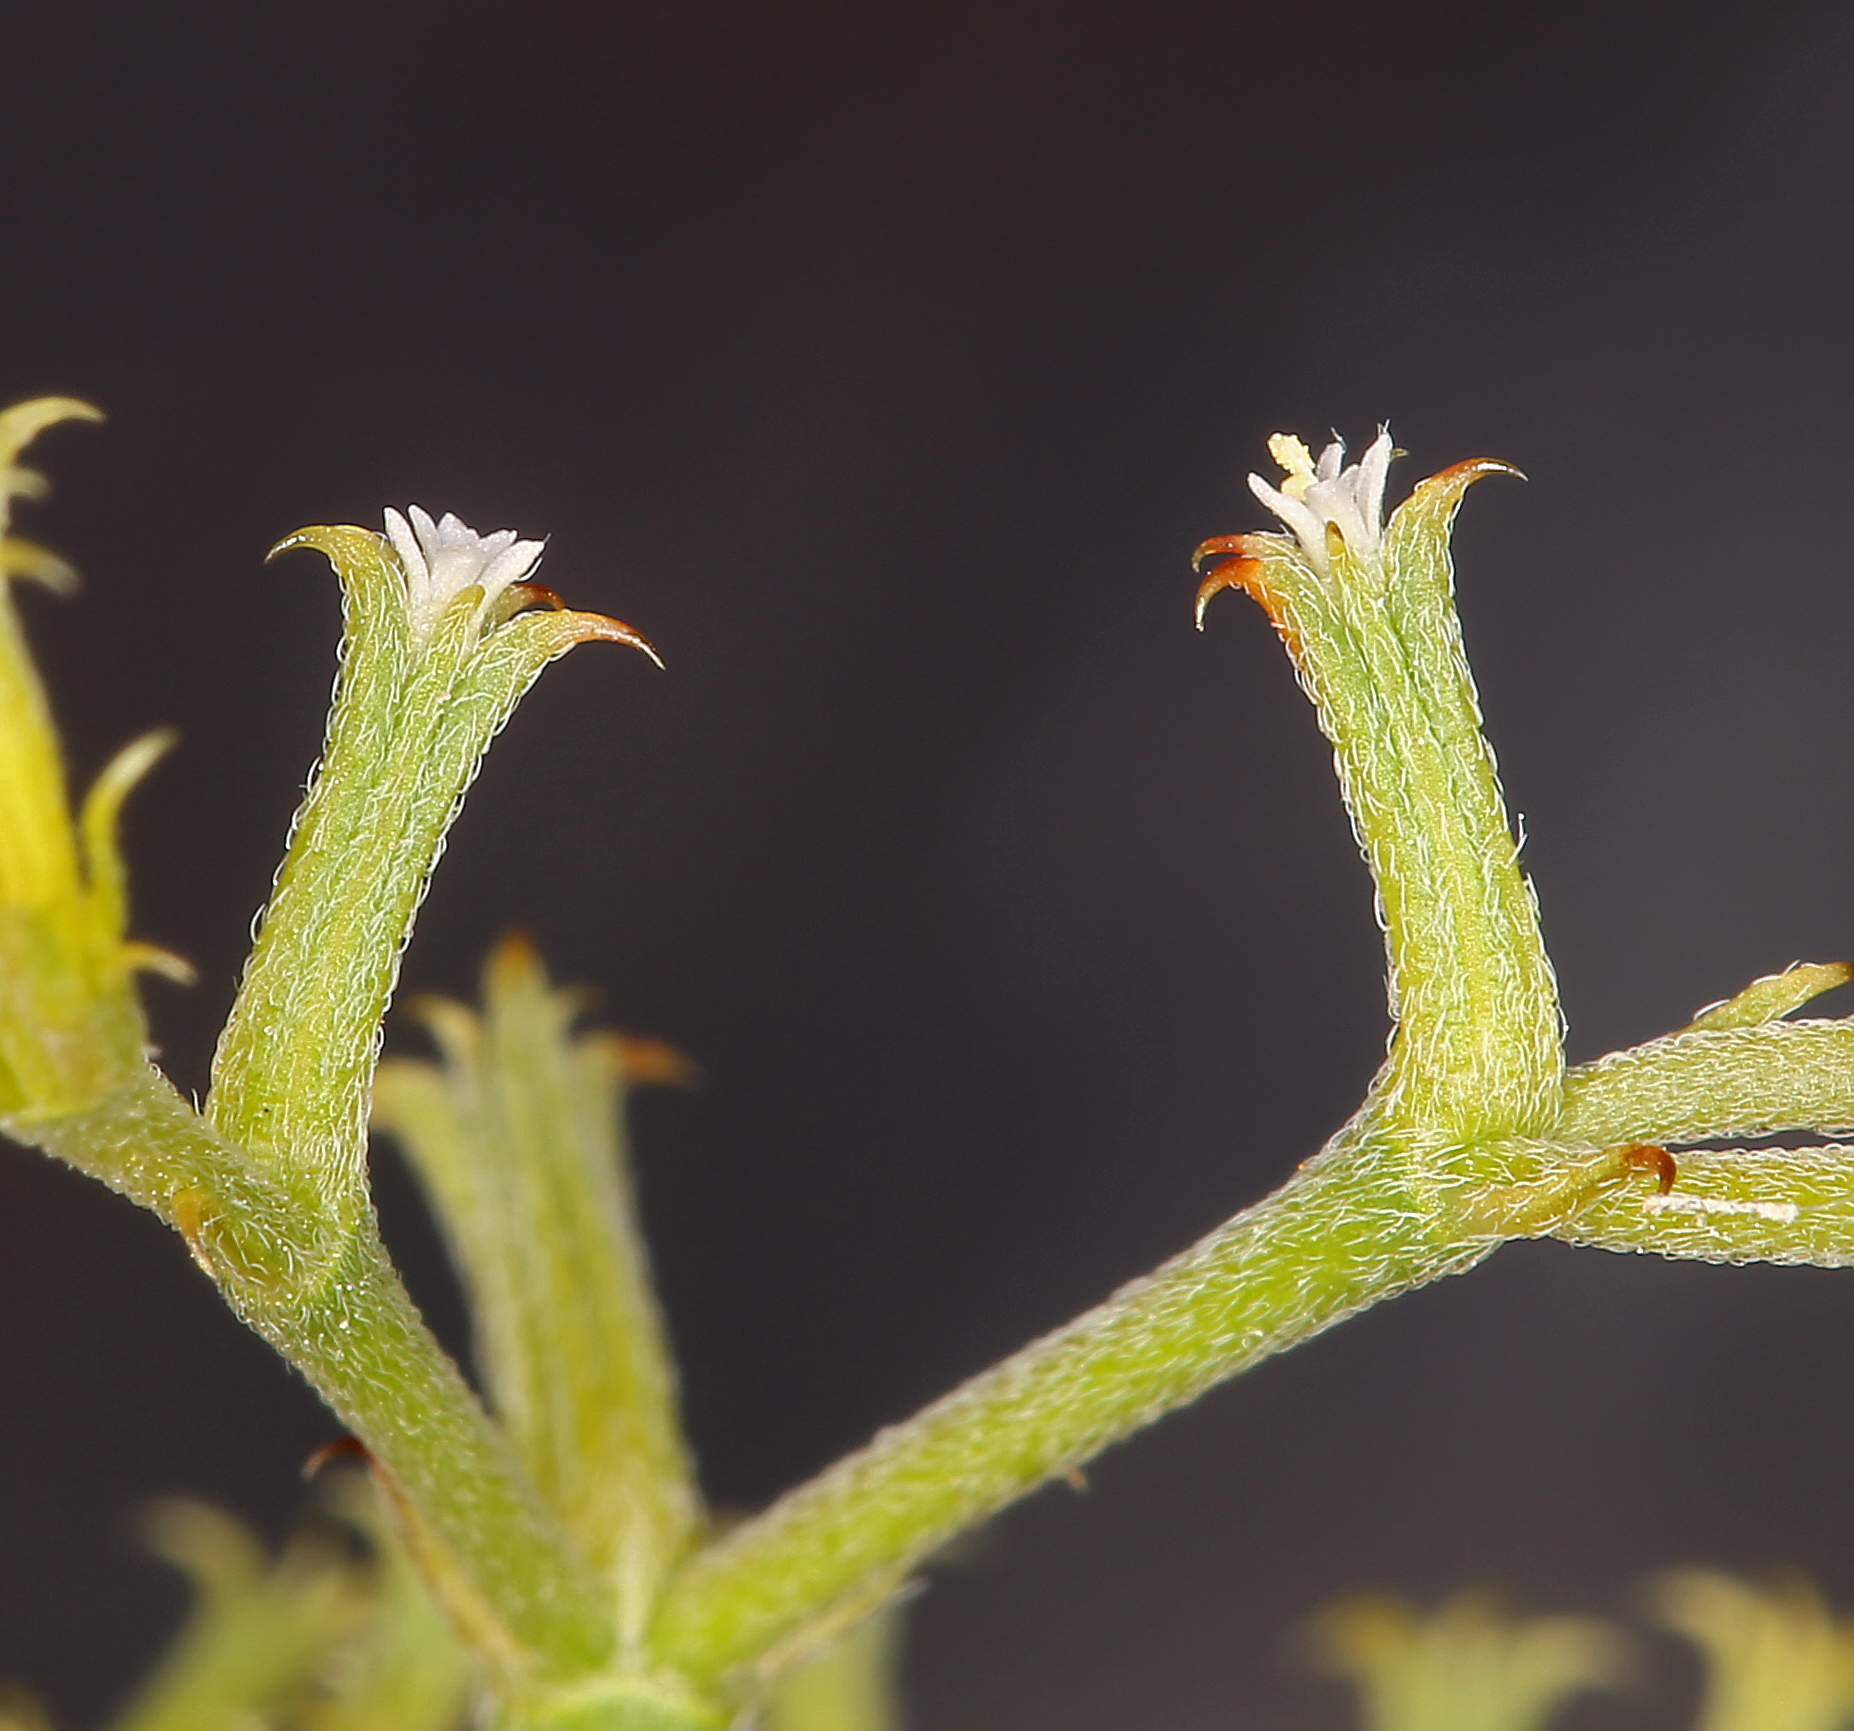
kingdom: Plantae
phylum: Tracheophyta
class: Magnoliopsida
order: Caryophyllales
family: Polygonaceae
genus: Chorizanthe
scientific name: Chorizanthe brevicornu
